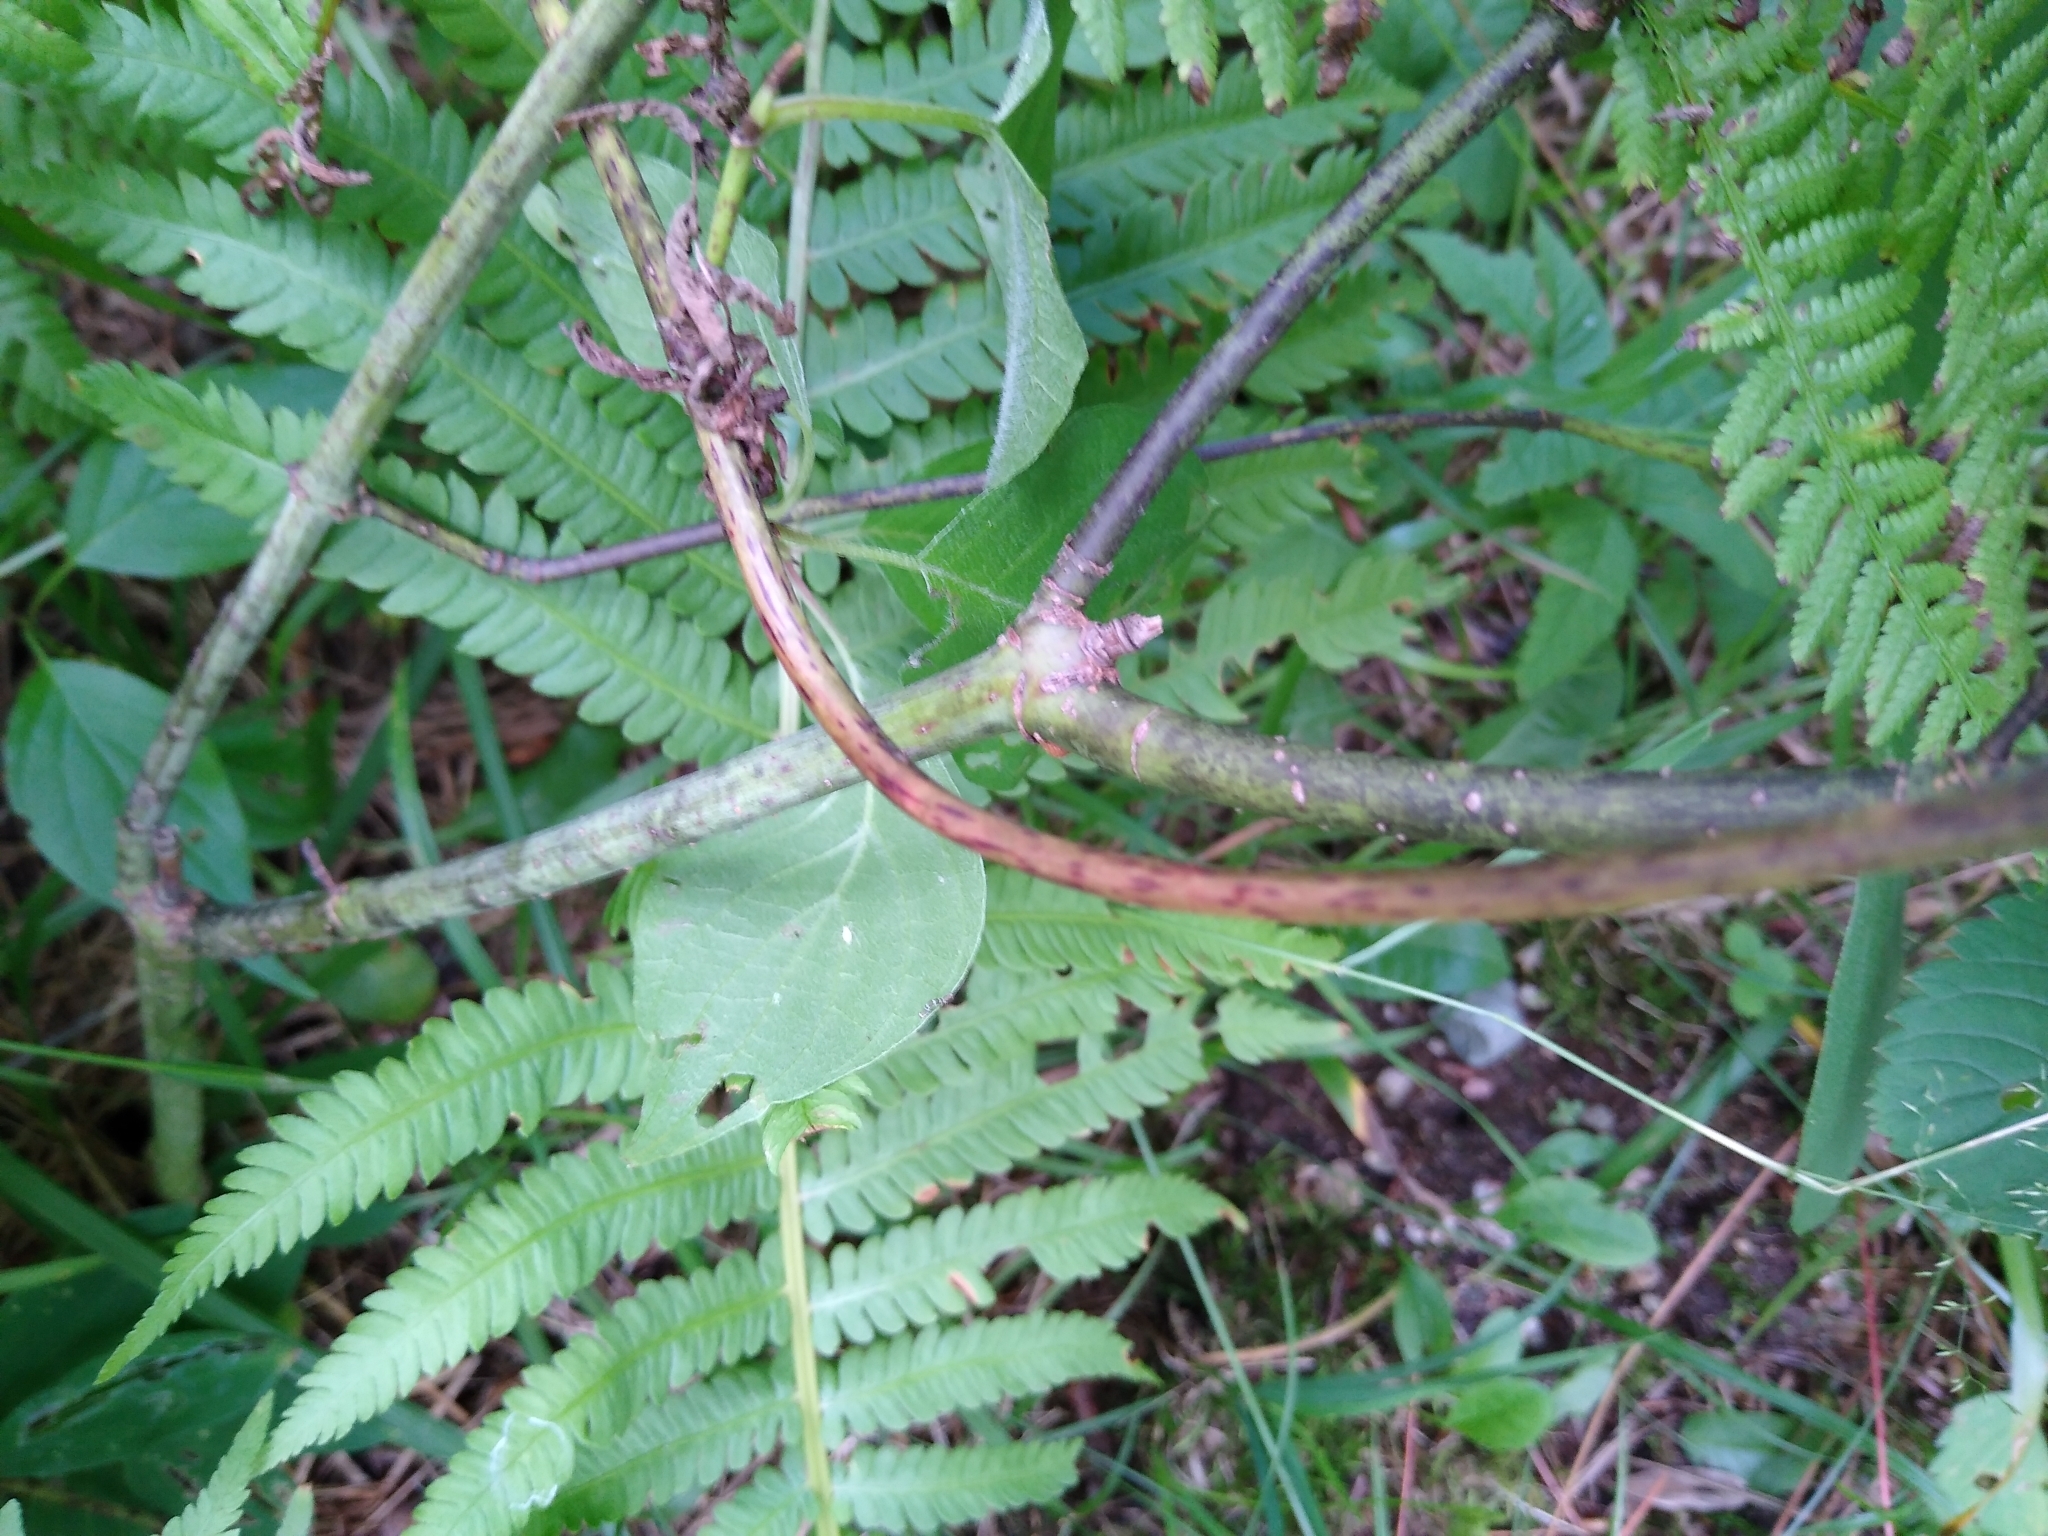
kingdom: Plantae
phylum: Tracheophyta
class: Magnoliopsida
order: Cornales
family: Cornaceae
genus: Cornus
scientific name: Cornus rugosa
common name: Round-leaf dogwood
